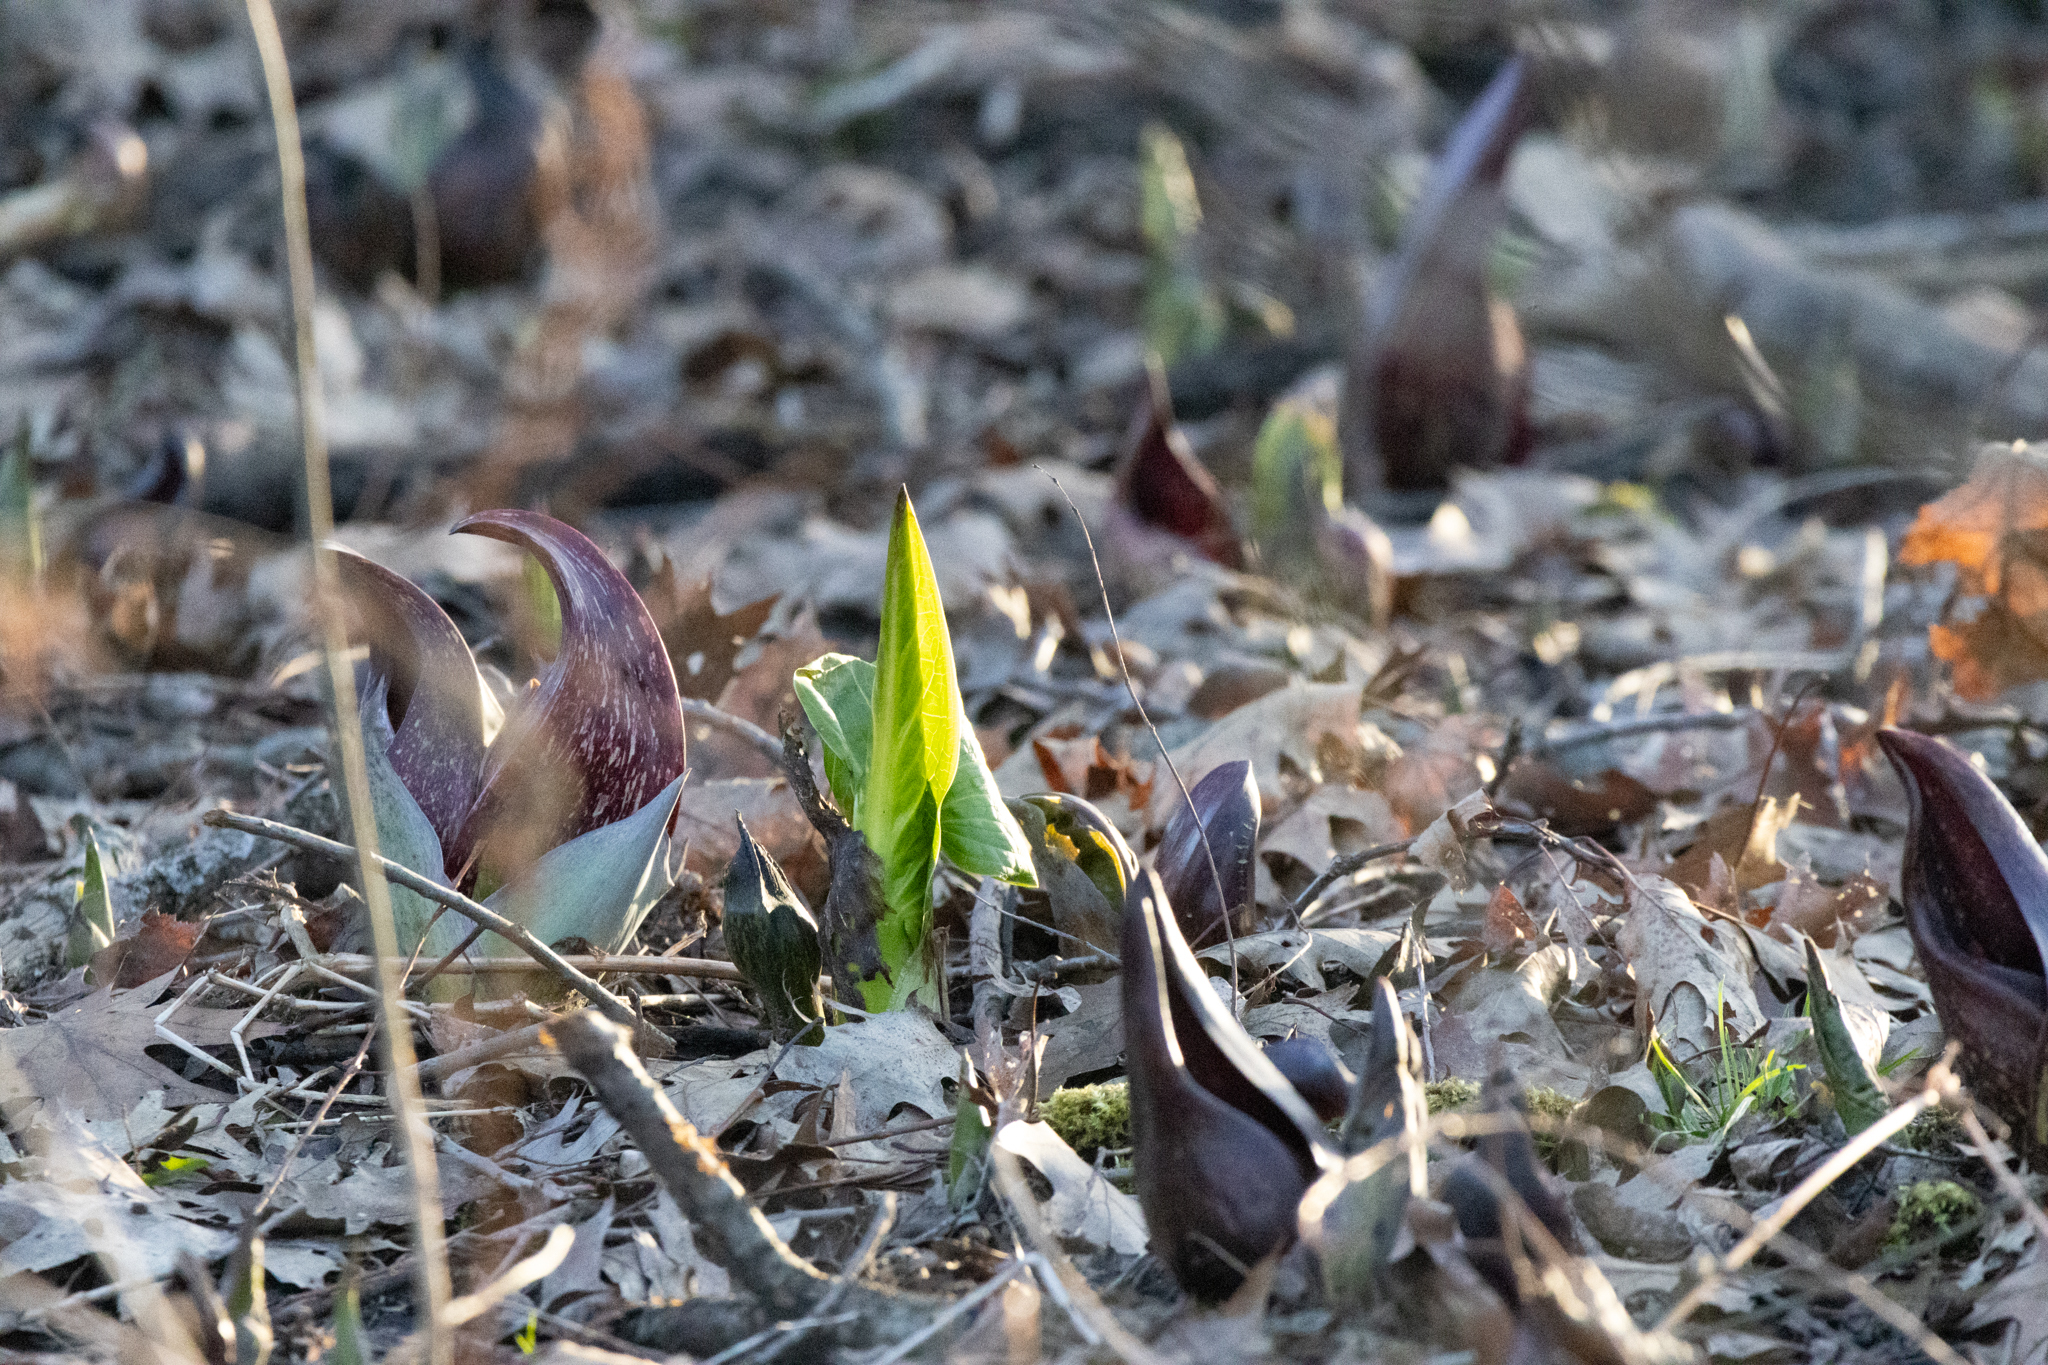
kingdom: Plantae
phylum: Tracheophyta
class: Liliopsida
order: Alismatales
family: Araceae
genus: Symplocarpus
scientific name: Symplocarpus foetidus
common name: Eastern skunk cabbage
